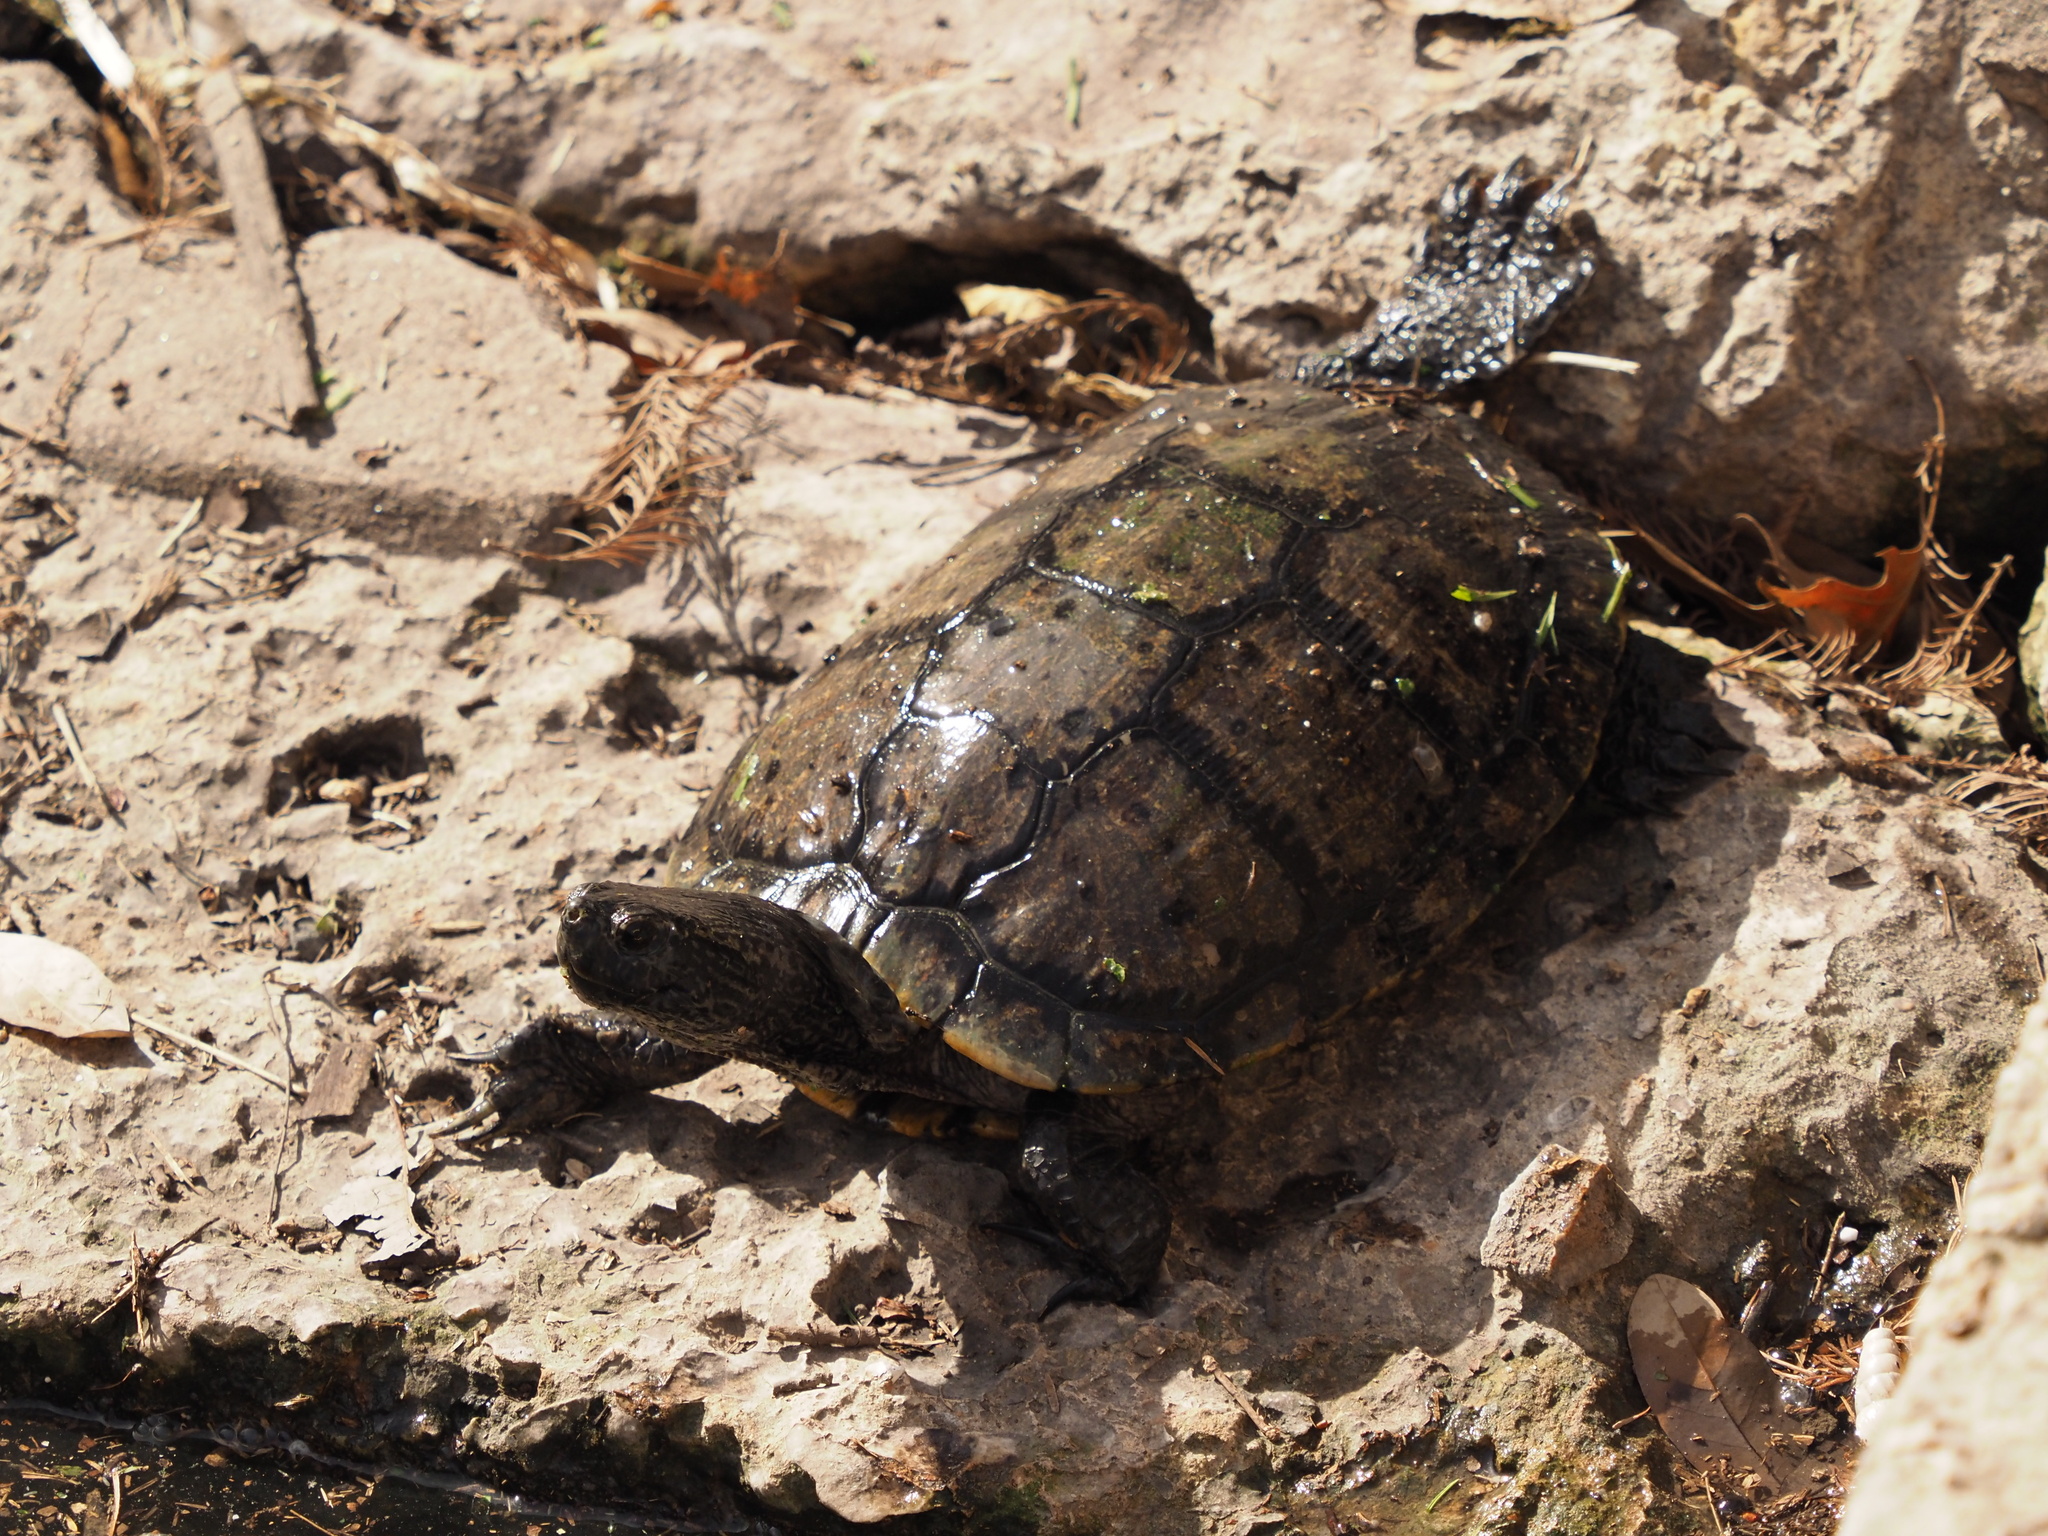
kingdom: Animalia
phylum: Chordata
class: Testudines
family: Emydidae
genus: Trachemys
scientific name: Trachemys scripta
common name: Slider
